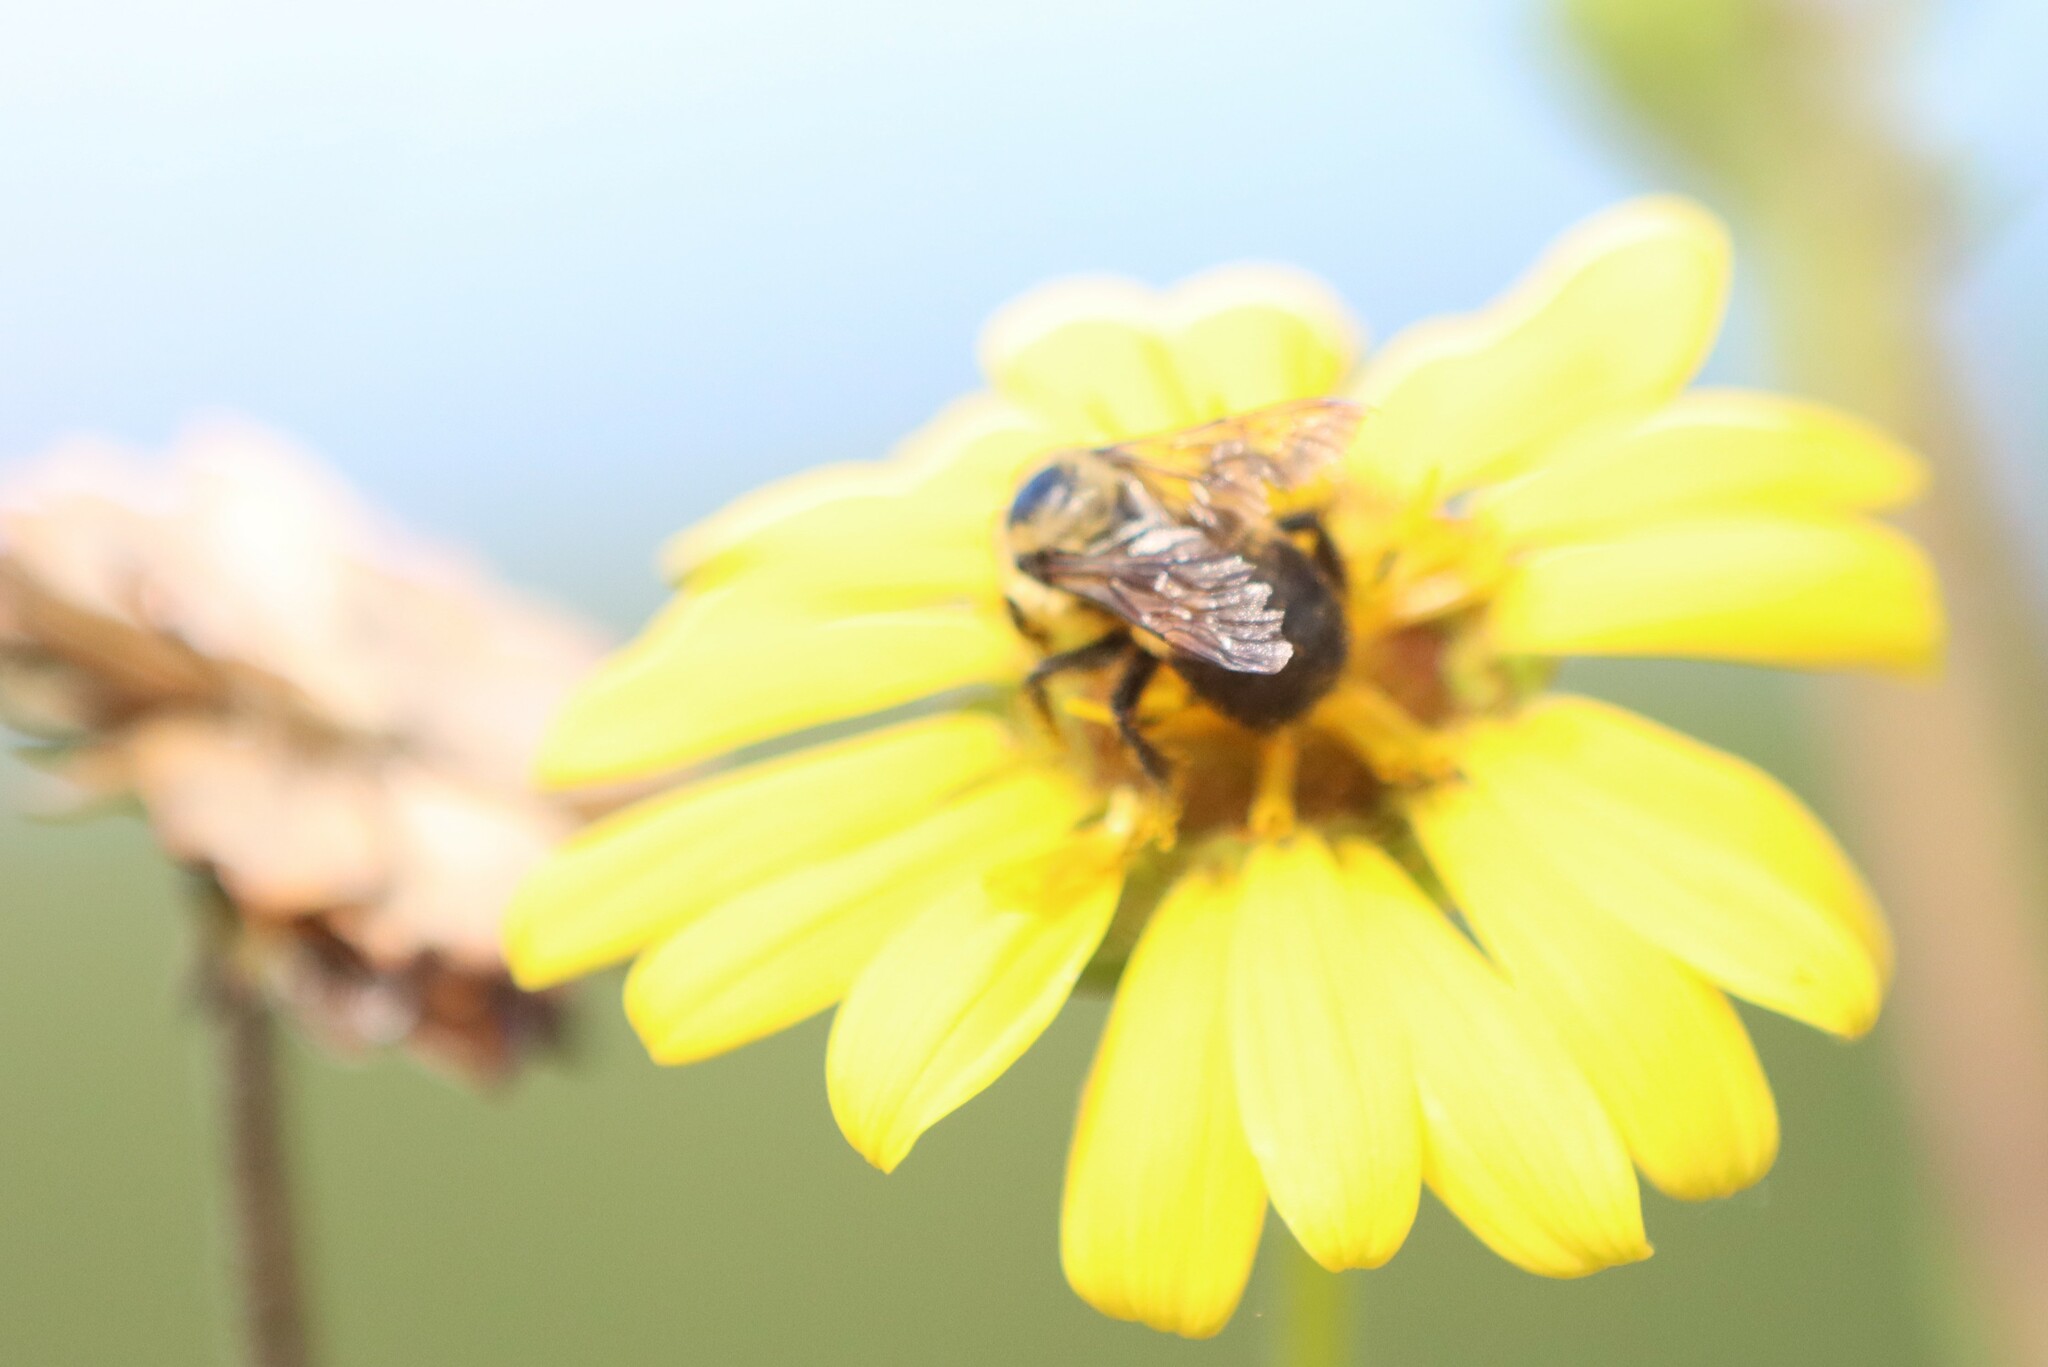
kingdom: Animalia
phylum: Arthropoda
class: Insecta
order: Hymenoptera
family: Apidae
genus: Bombus
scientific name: Bombus griseocollis
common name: Brown-belted bumble bee
